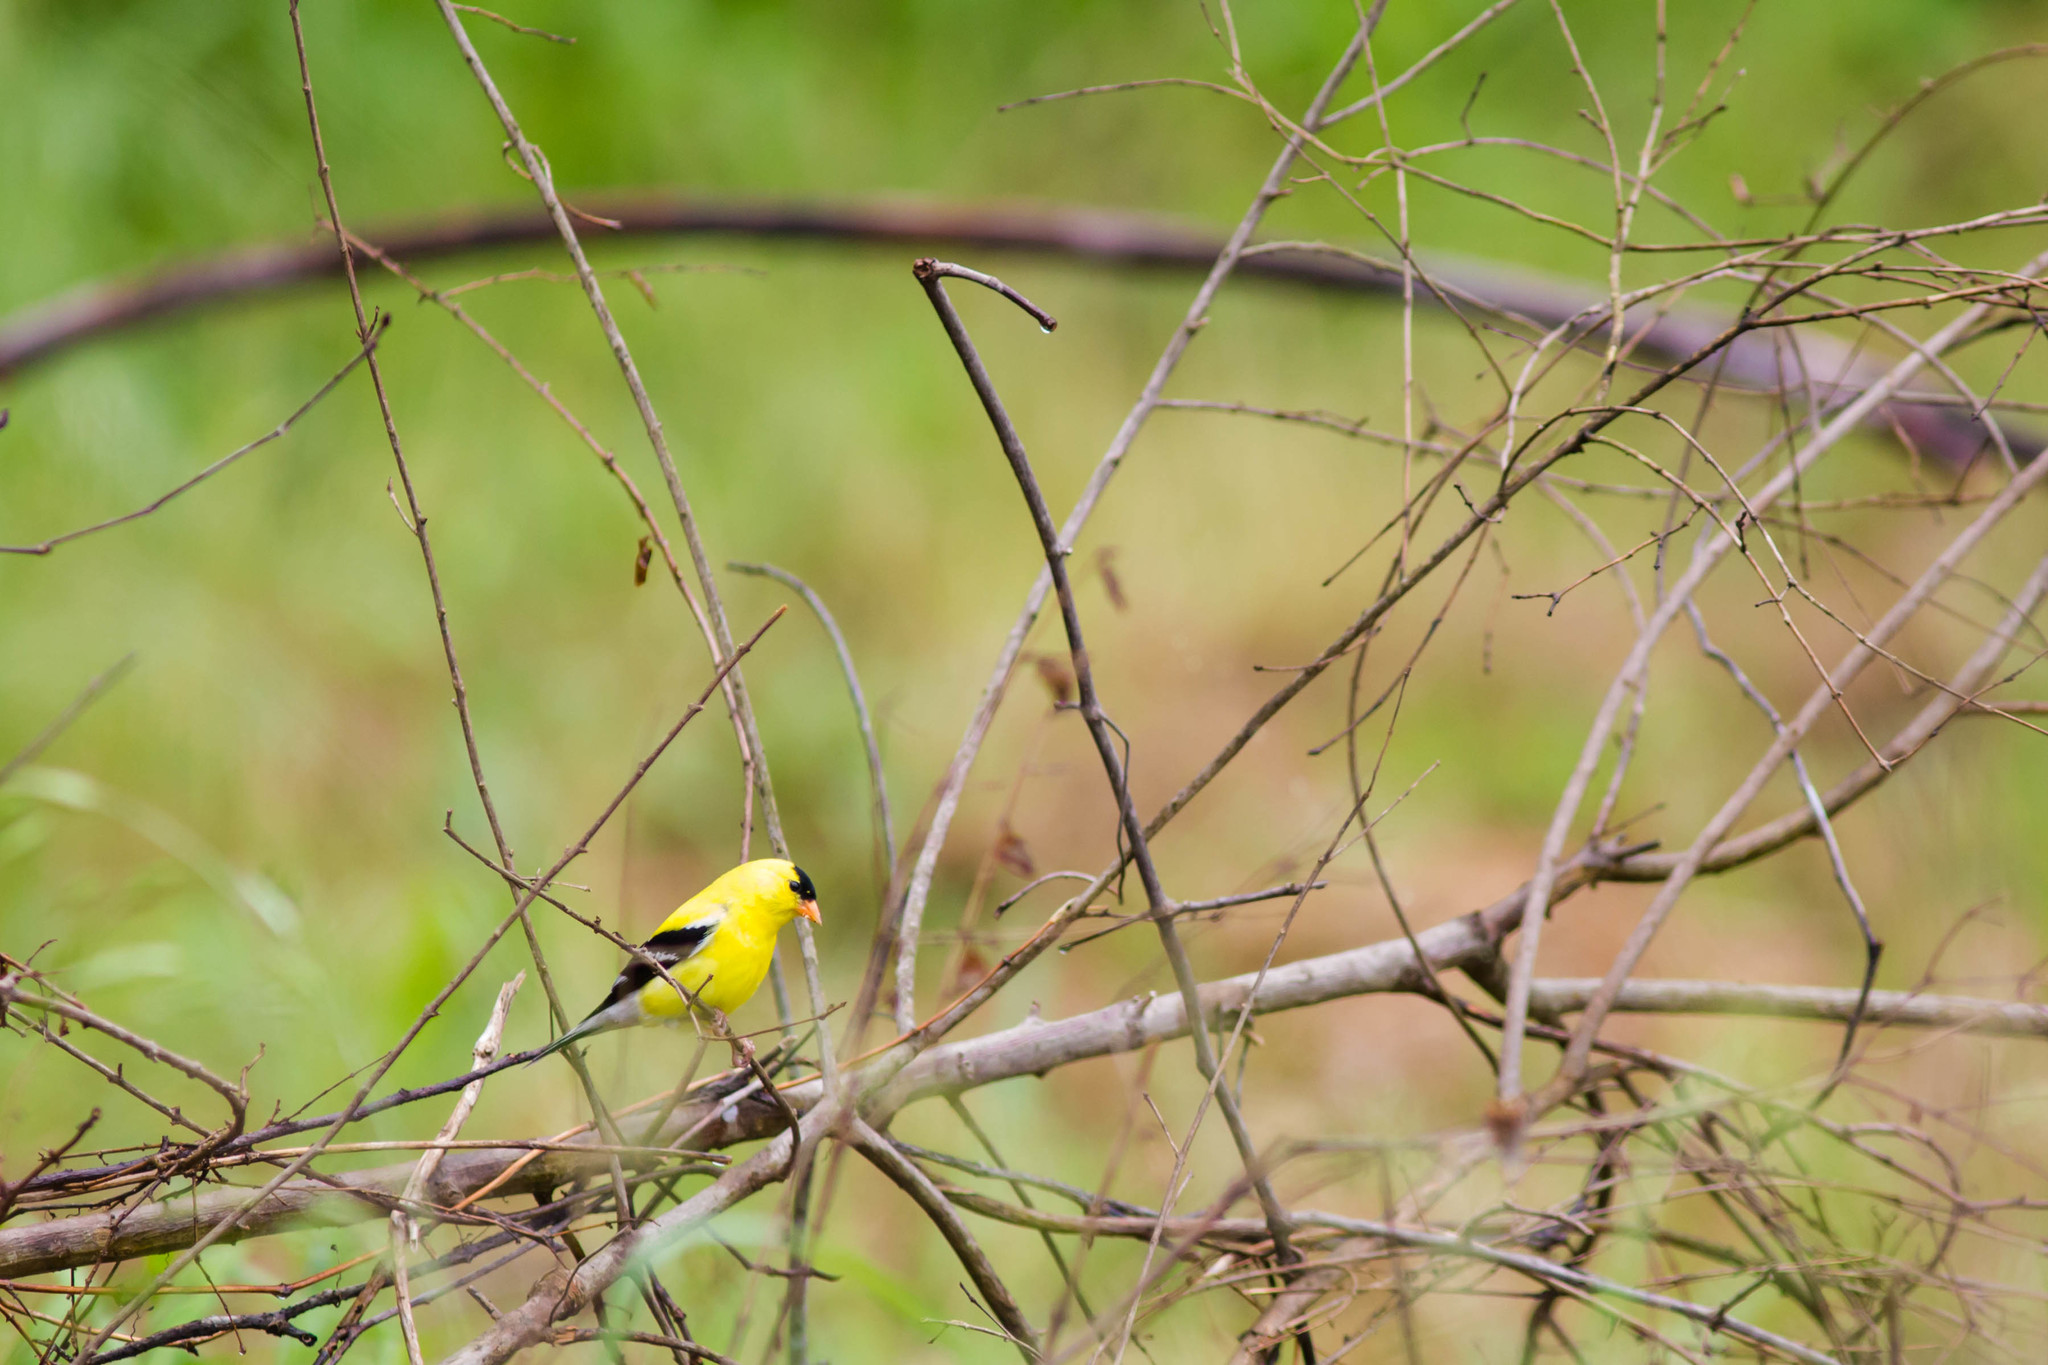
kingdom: Animalia
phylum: Chordata
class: Aves
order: Passeriformes
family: Fringillidae
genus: Spinus
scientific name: Spinus tristis
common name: American goldfinch
